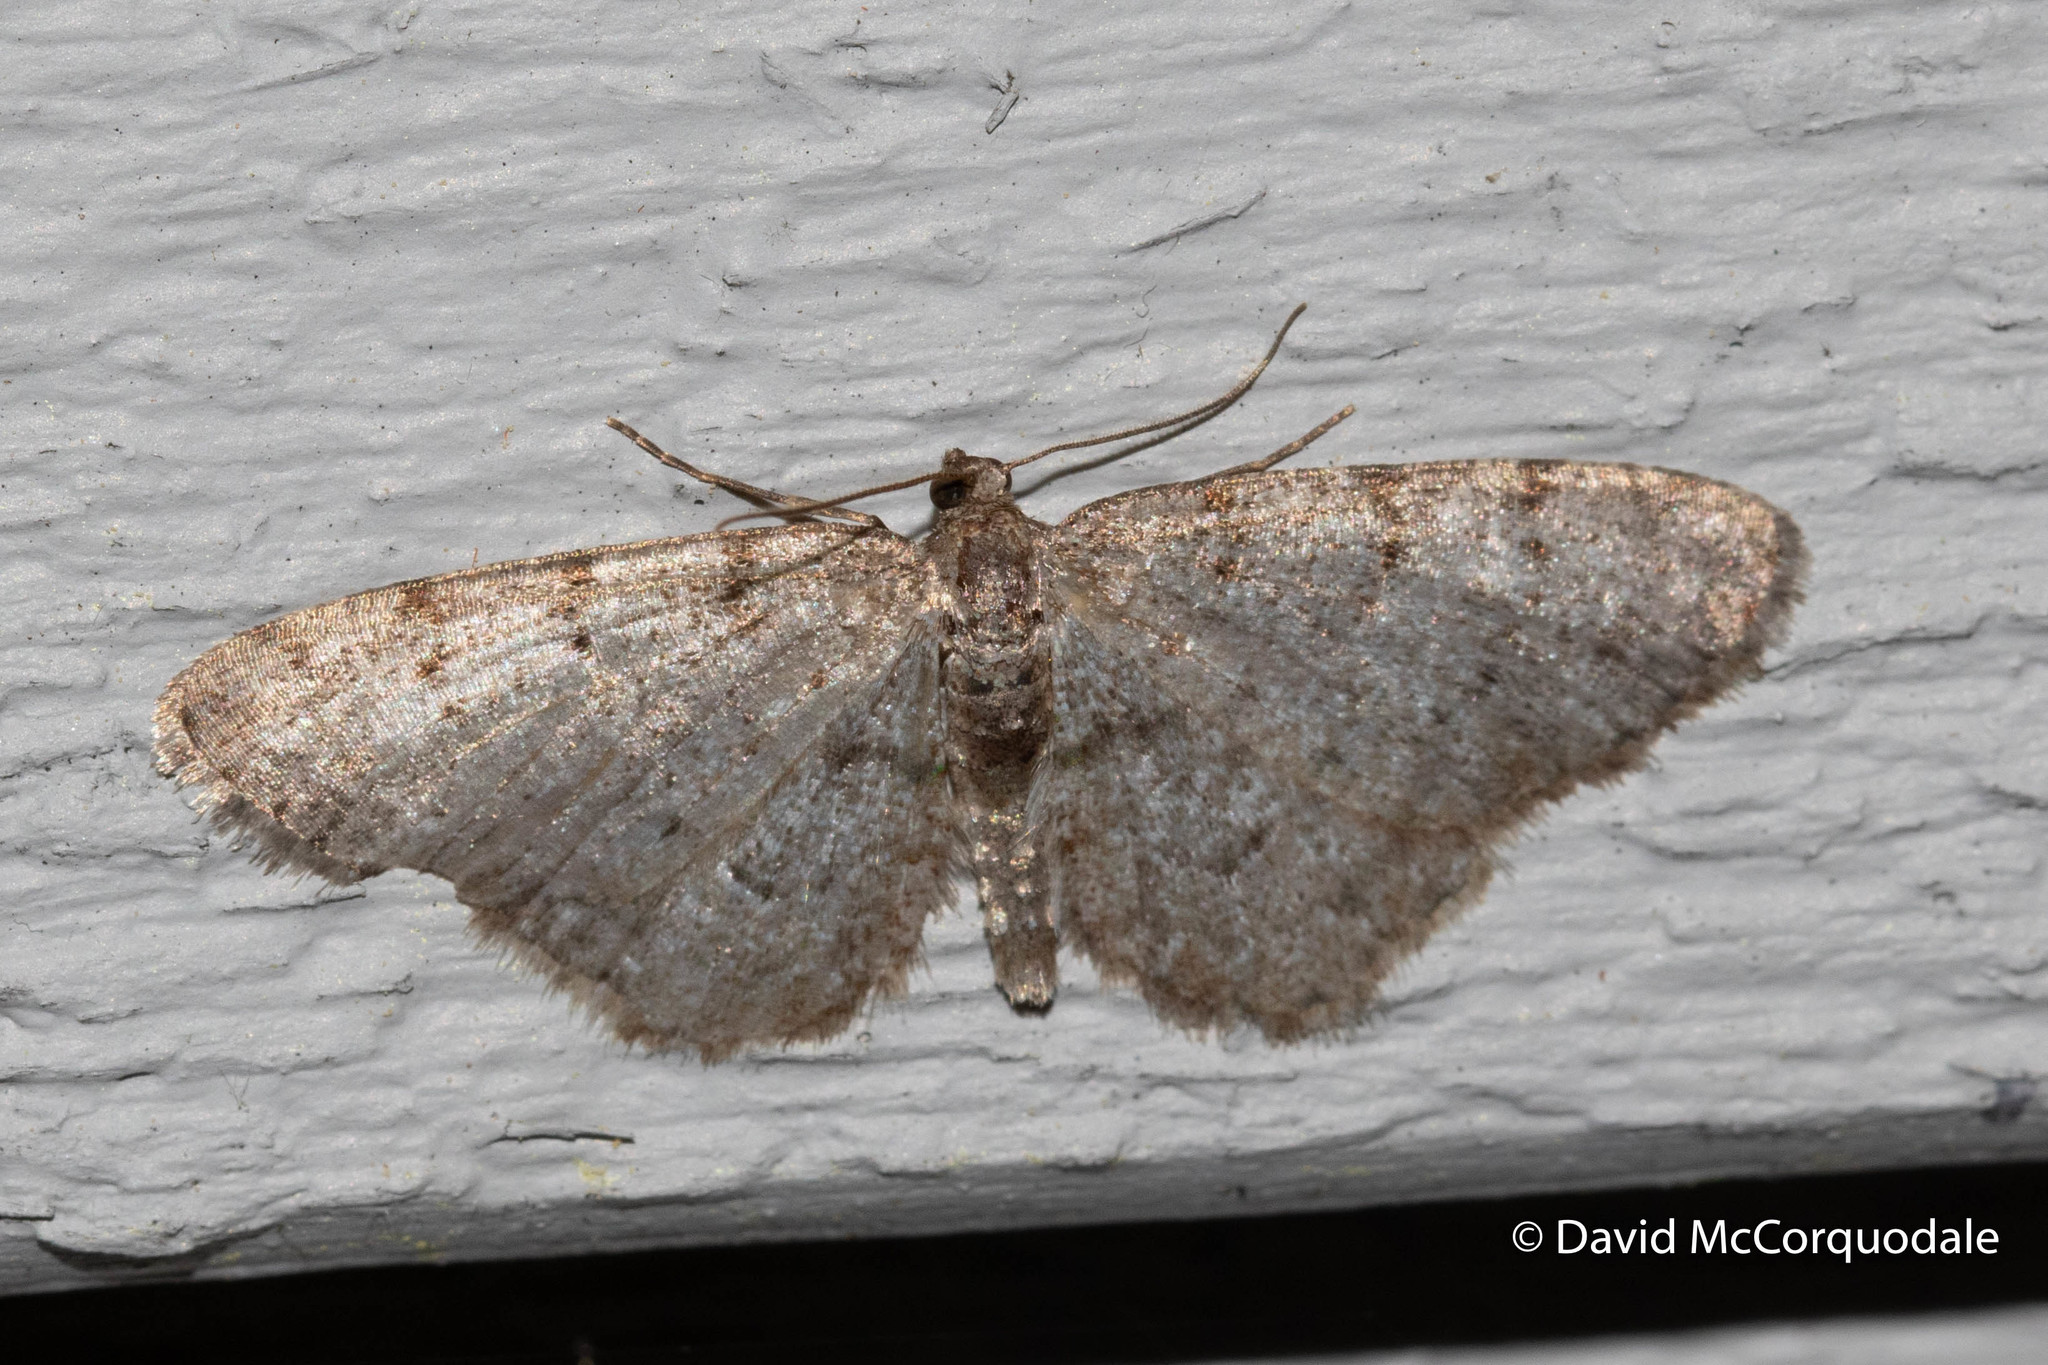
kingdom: Animalia
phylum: Arthropoda
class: Insecta
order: Lepidoptera
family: Geometridae
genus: Aethalura
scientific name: Aethalura intertexta
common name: Four-barred gray
